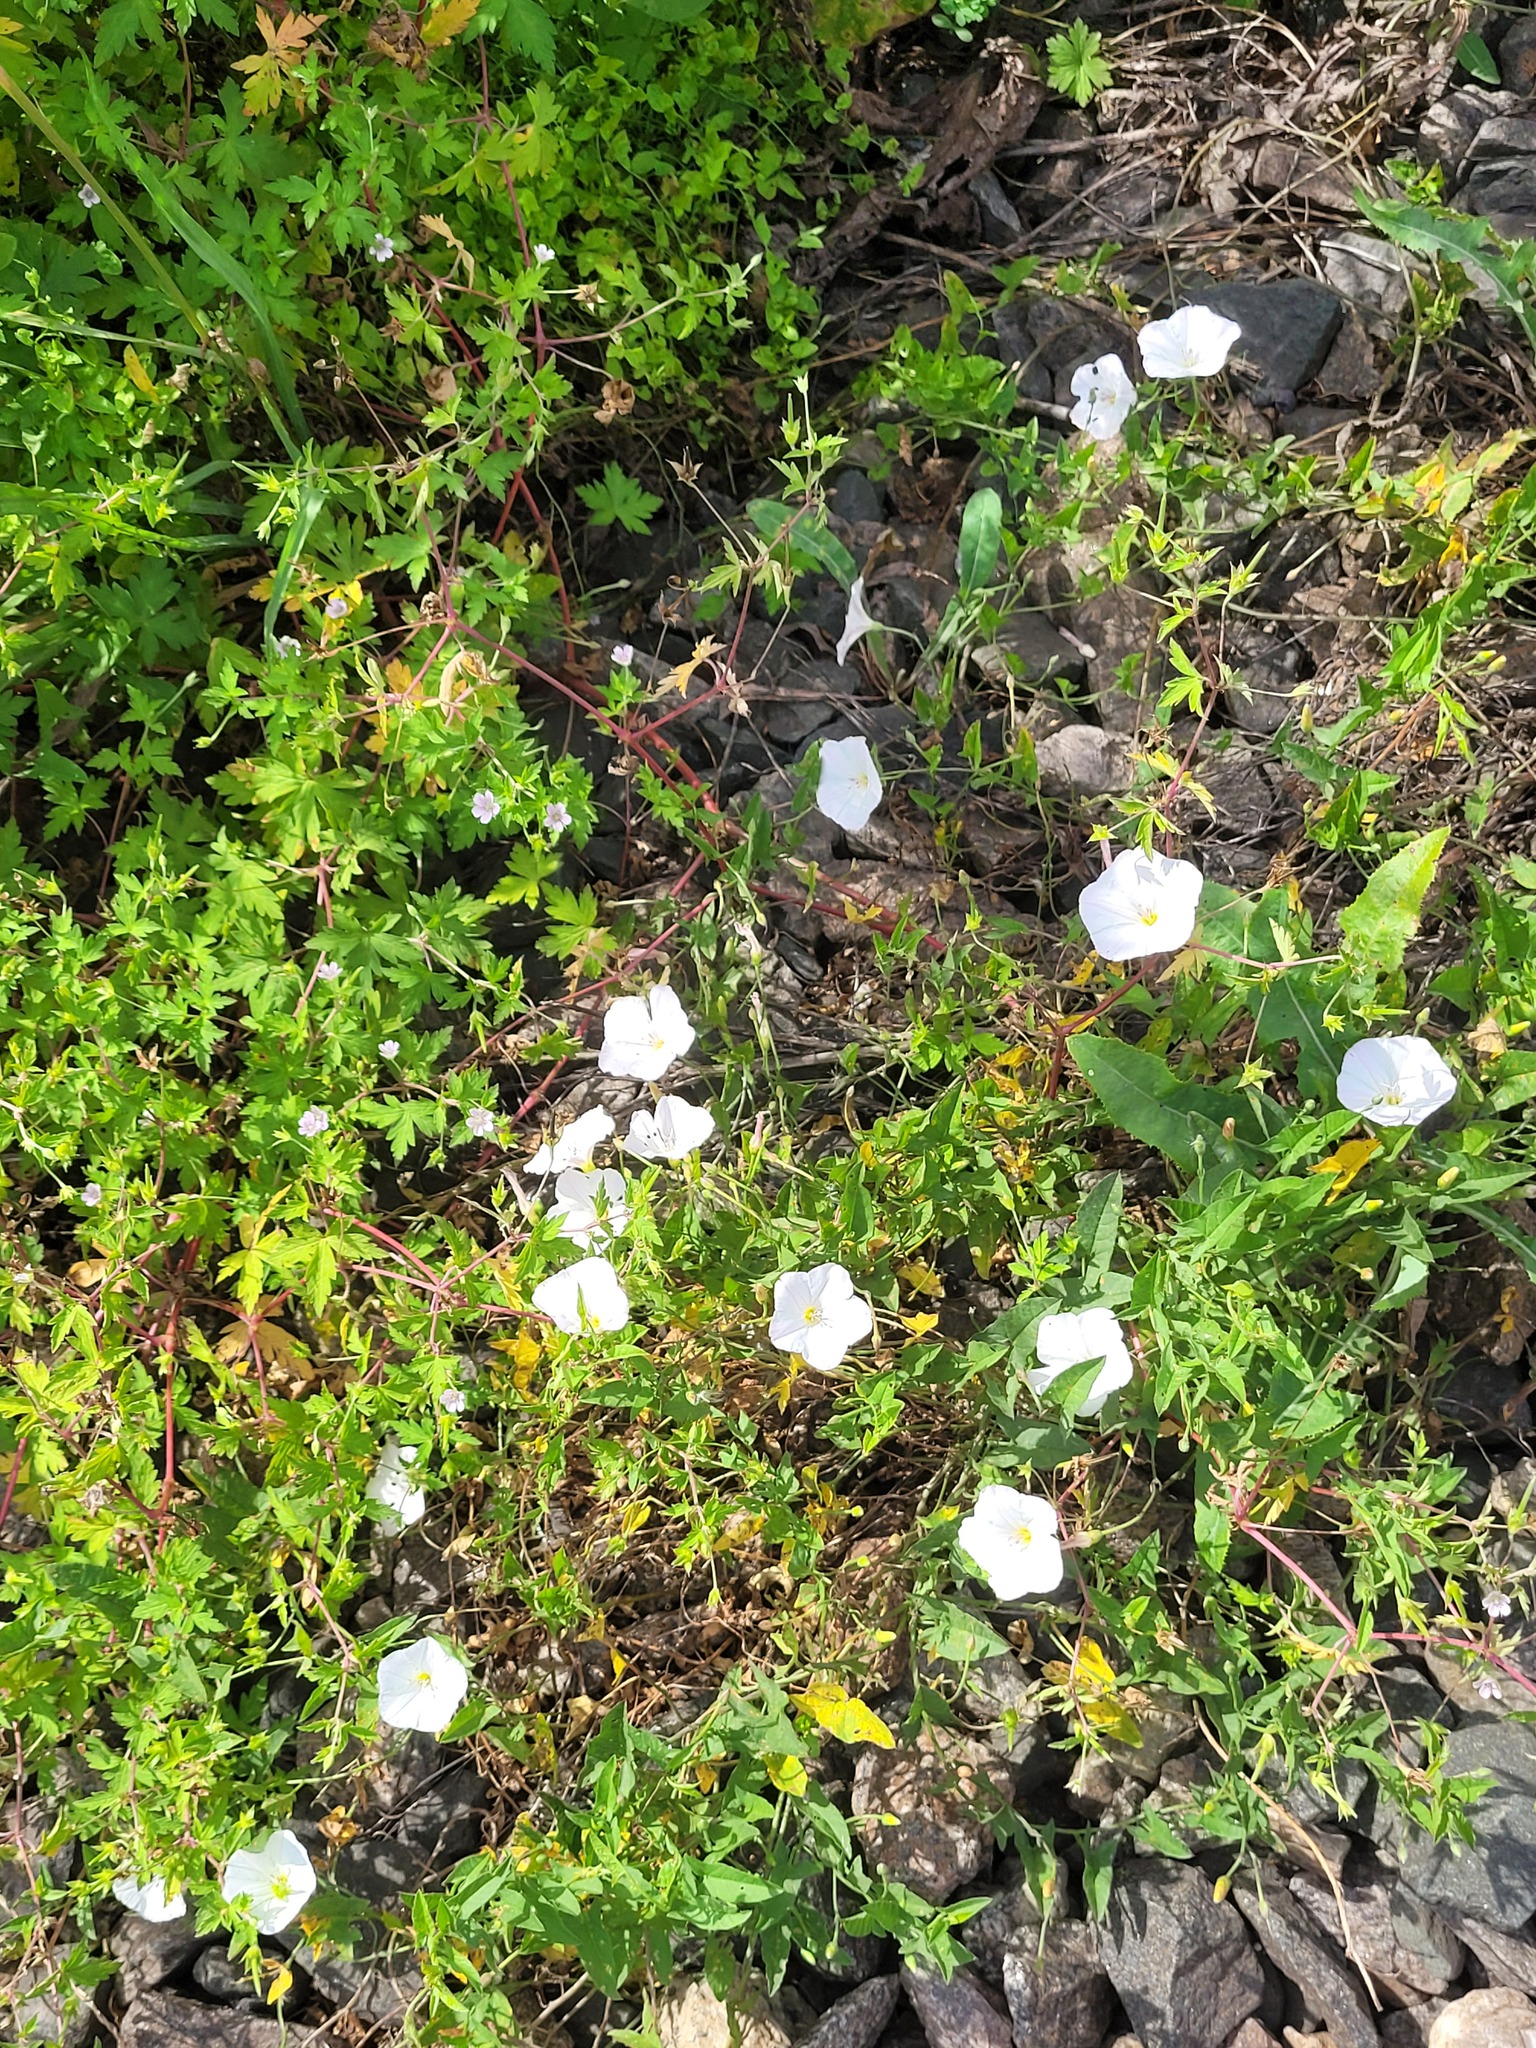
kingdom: Plantae
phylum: Tracheophyta
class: Magnoliopsida
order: Solanales
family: Convolvulaceae
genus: Convolvulus
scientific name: Convolvulus arvensis
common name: Field bindweed
